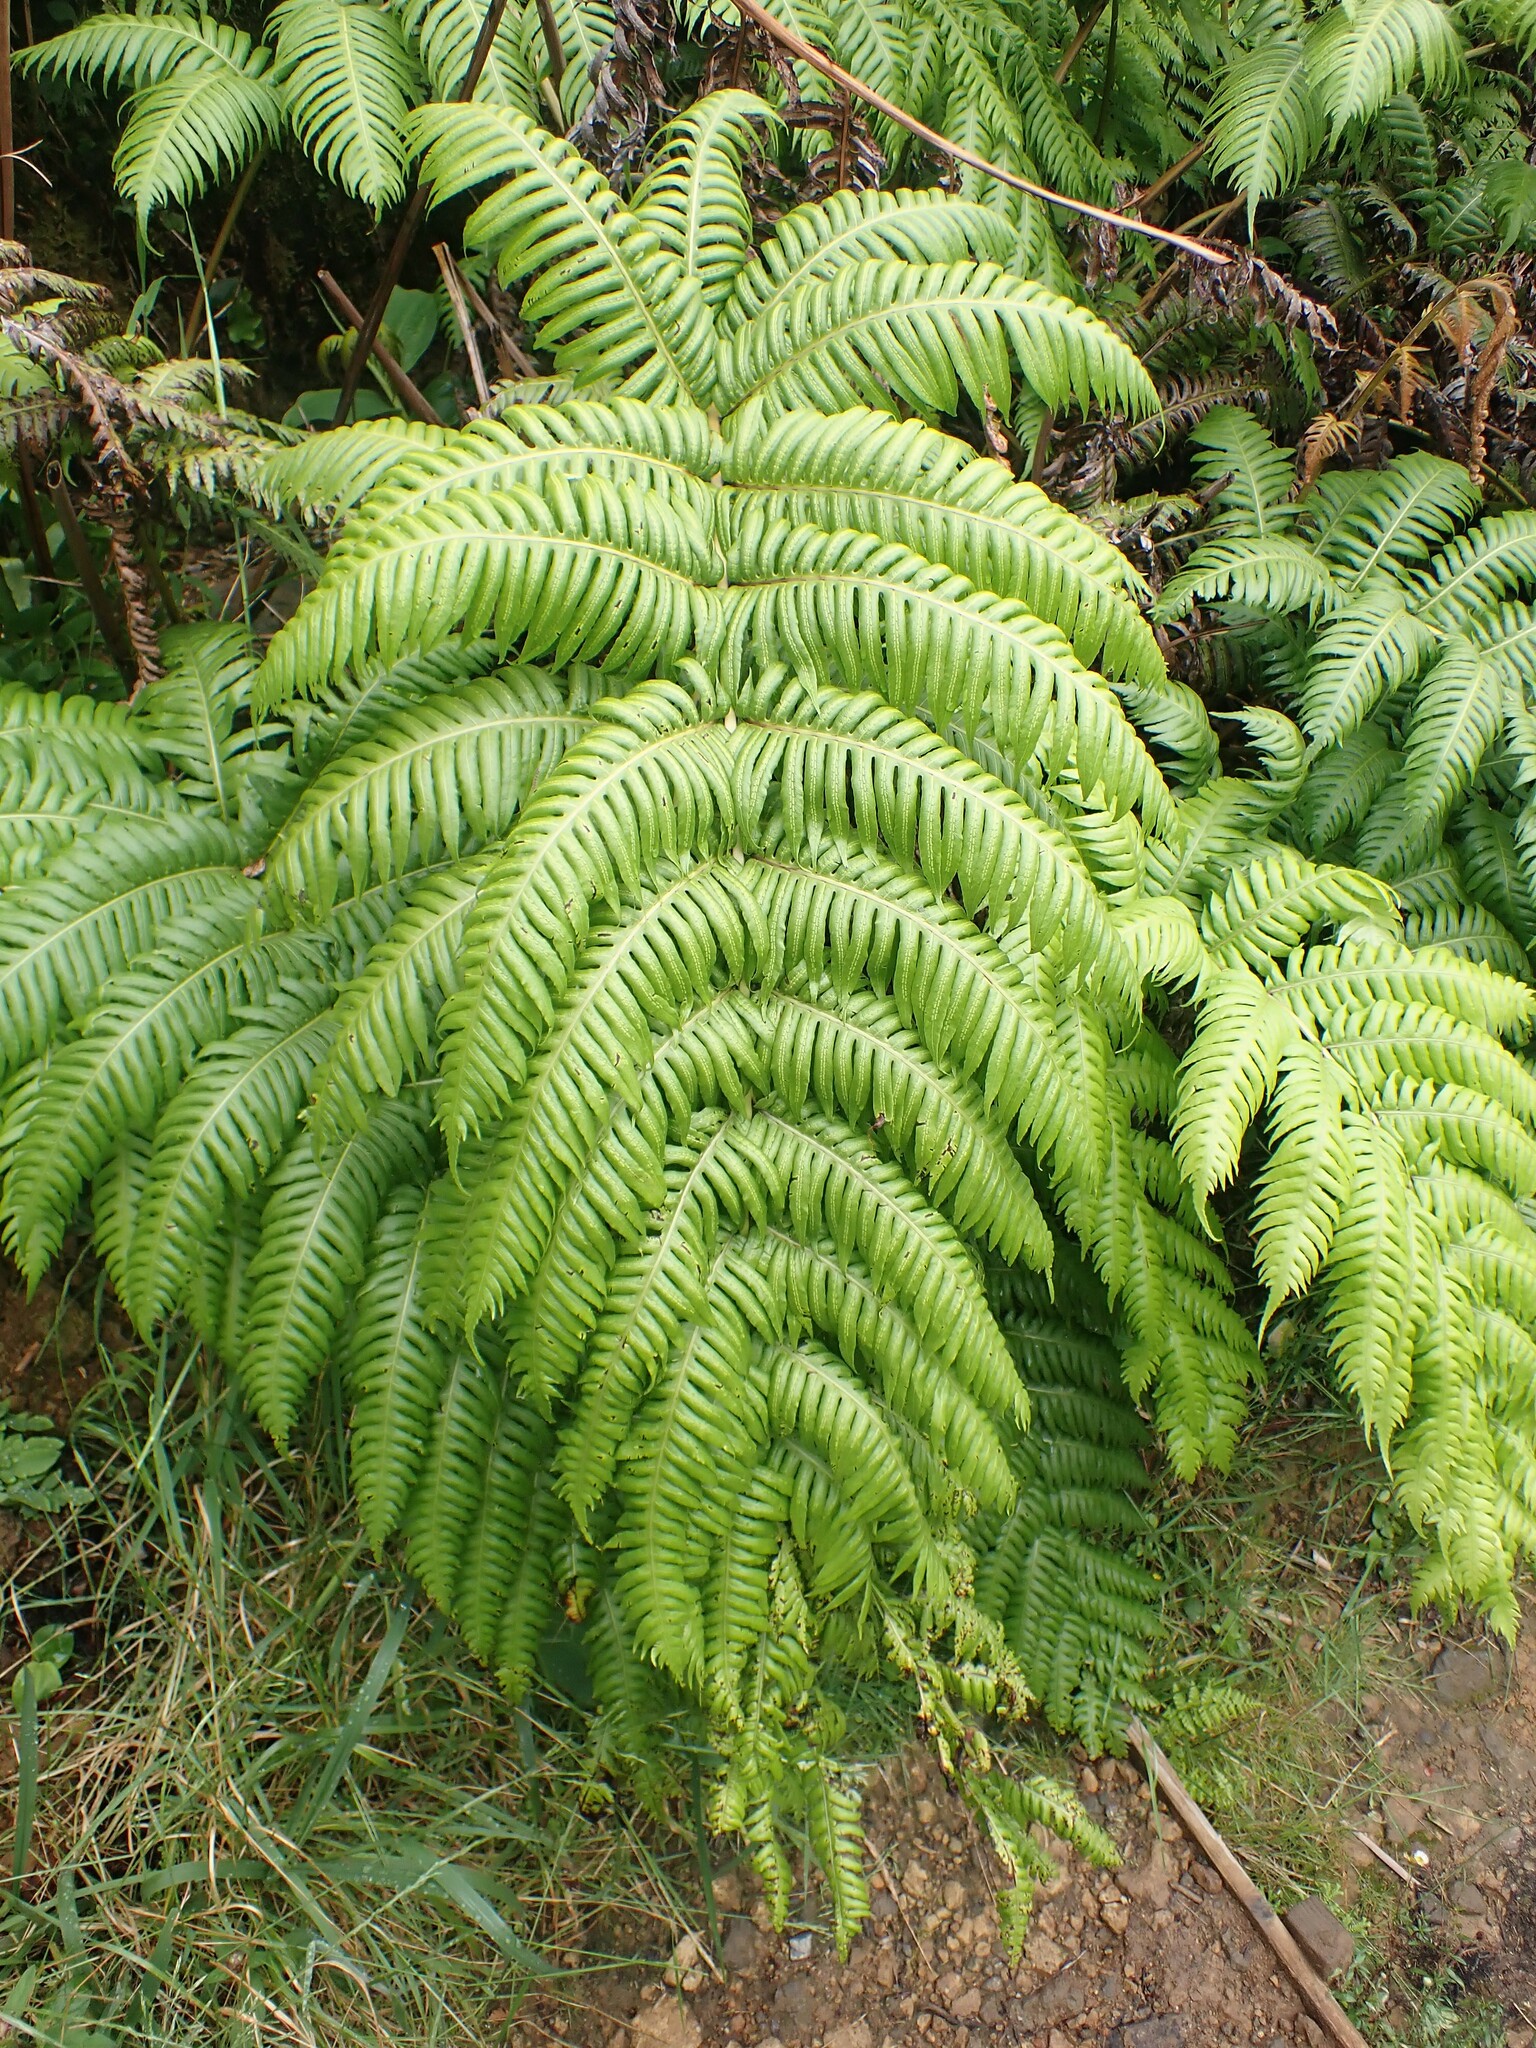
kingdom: Plantae
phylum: Tracheophyta
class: Polypodiopsida
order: Polypodiales
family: Blechnaceae
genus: Woodwardia
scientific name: Woodwardia radicans
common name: Rooting chainfern
